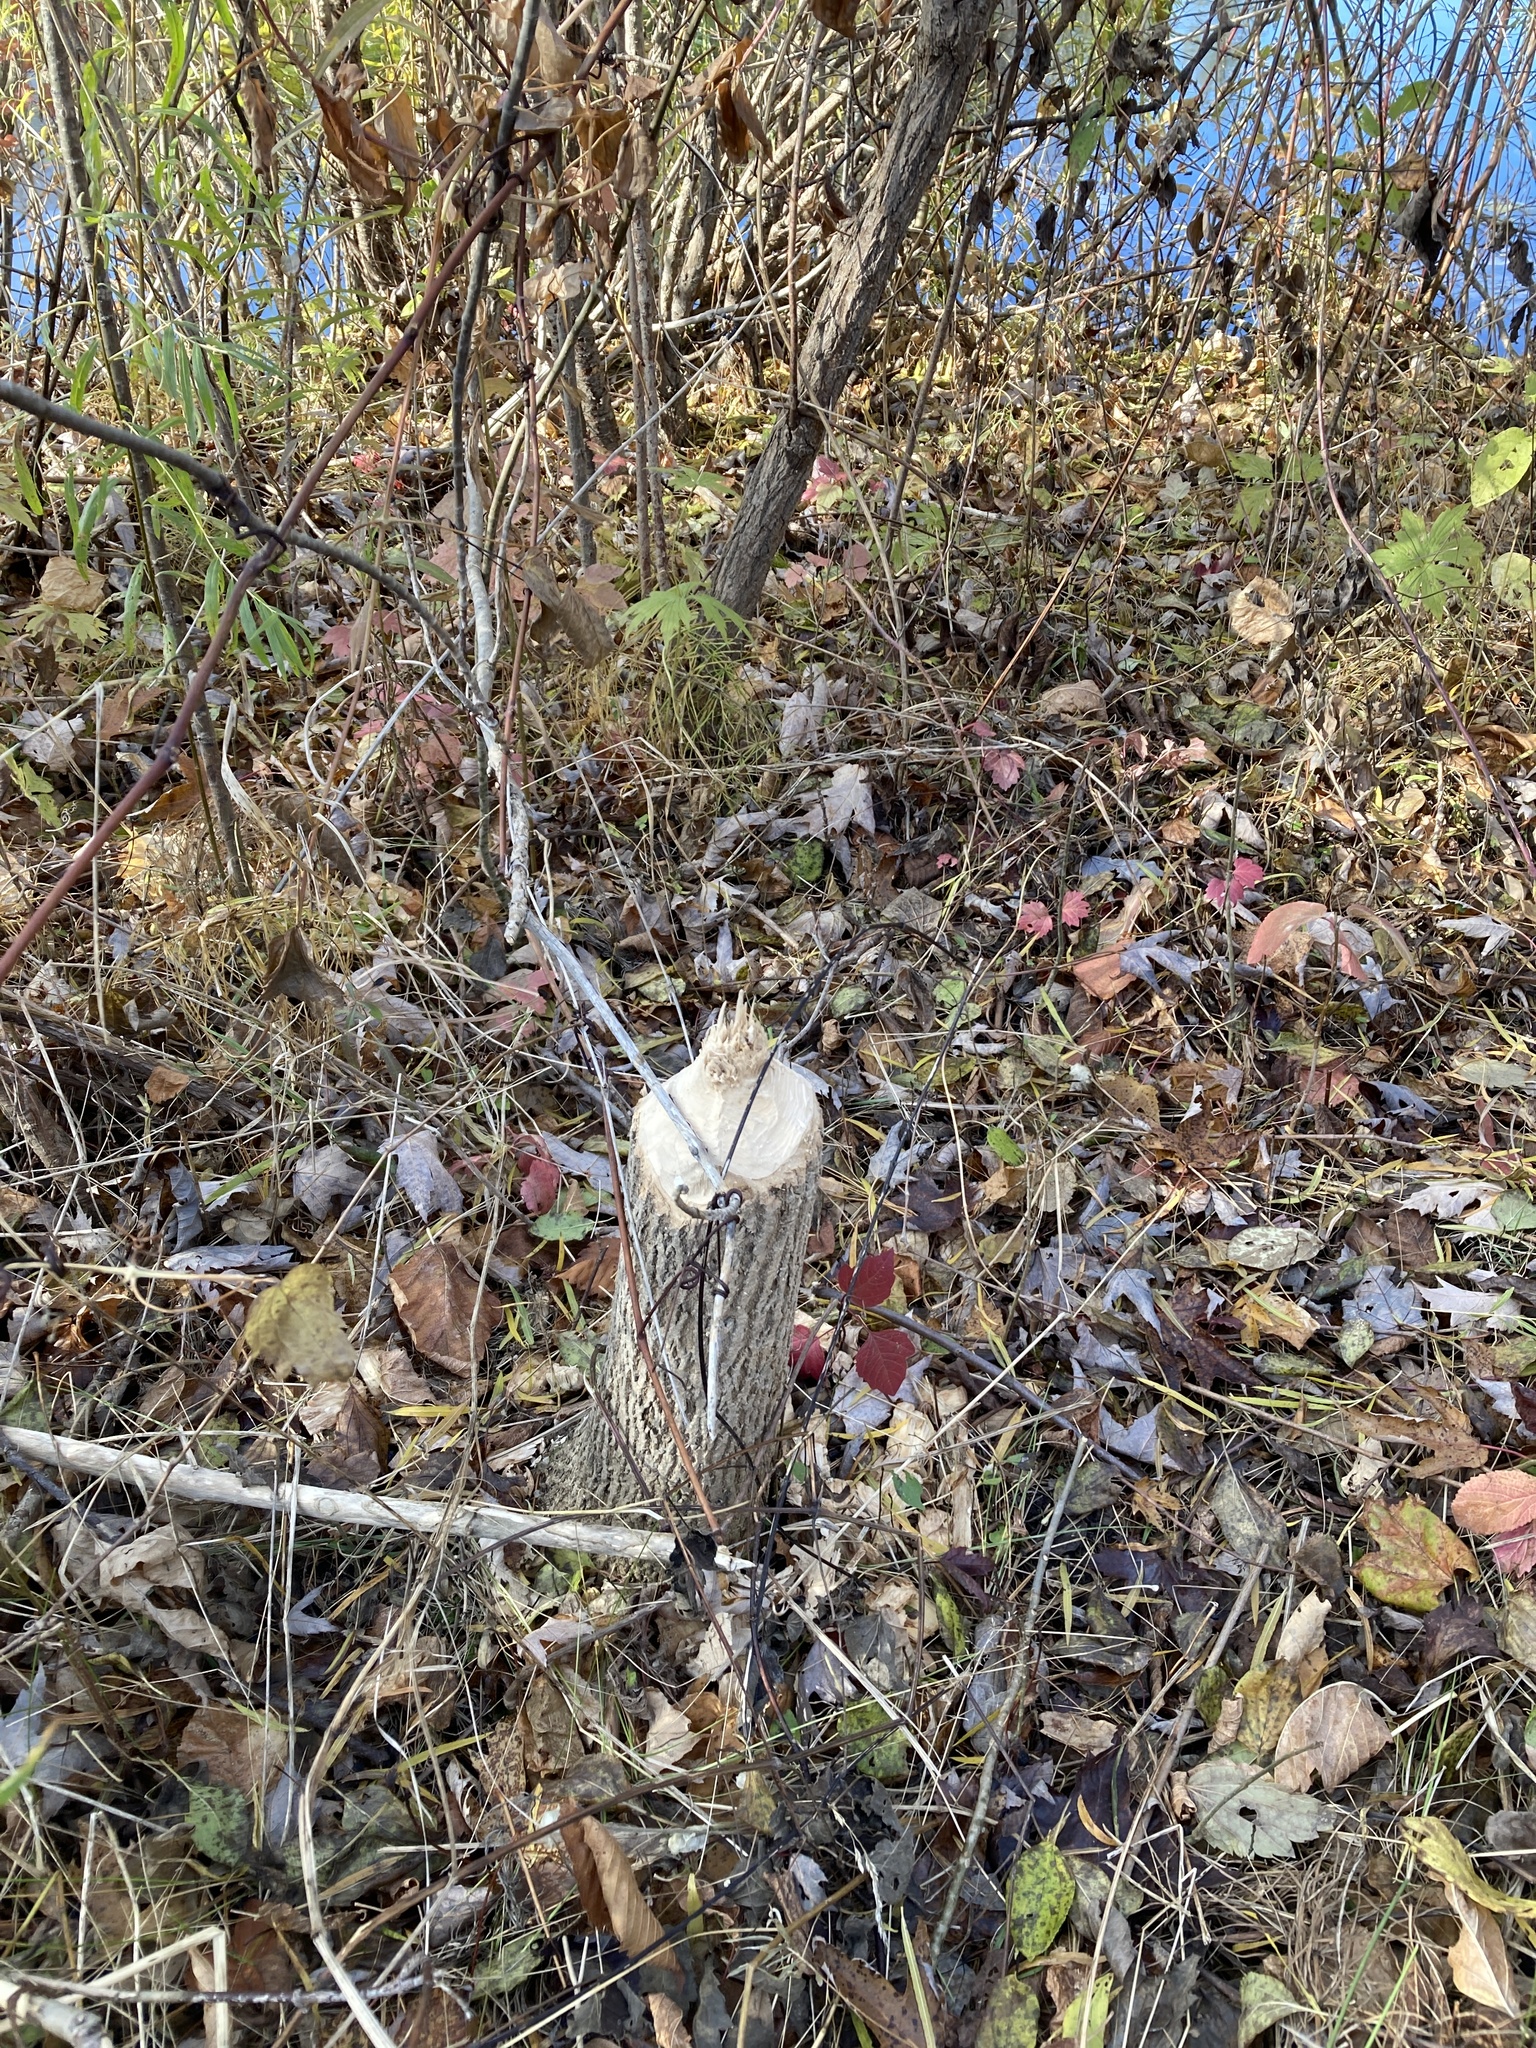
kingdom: Animalia
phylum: Chordata
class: Mammalia
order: Rodentia
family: Castoridae
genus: Castor
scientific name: Castor canadensis
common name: American beaver
